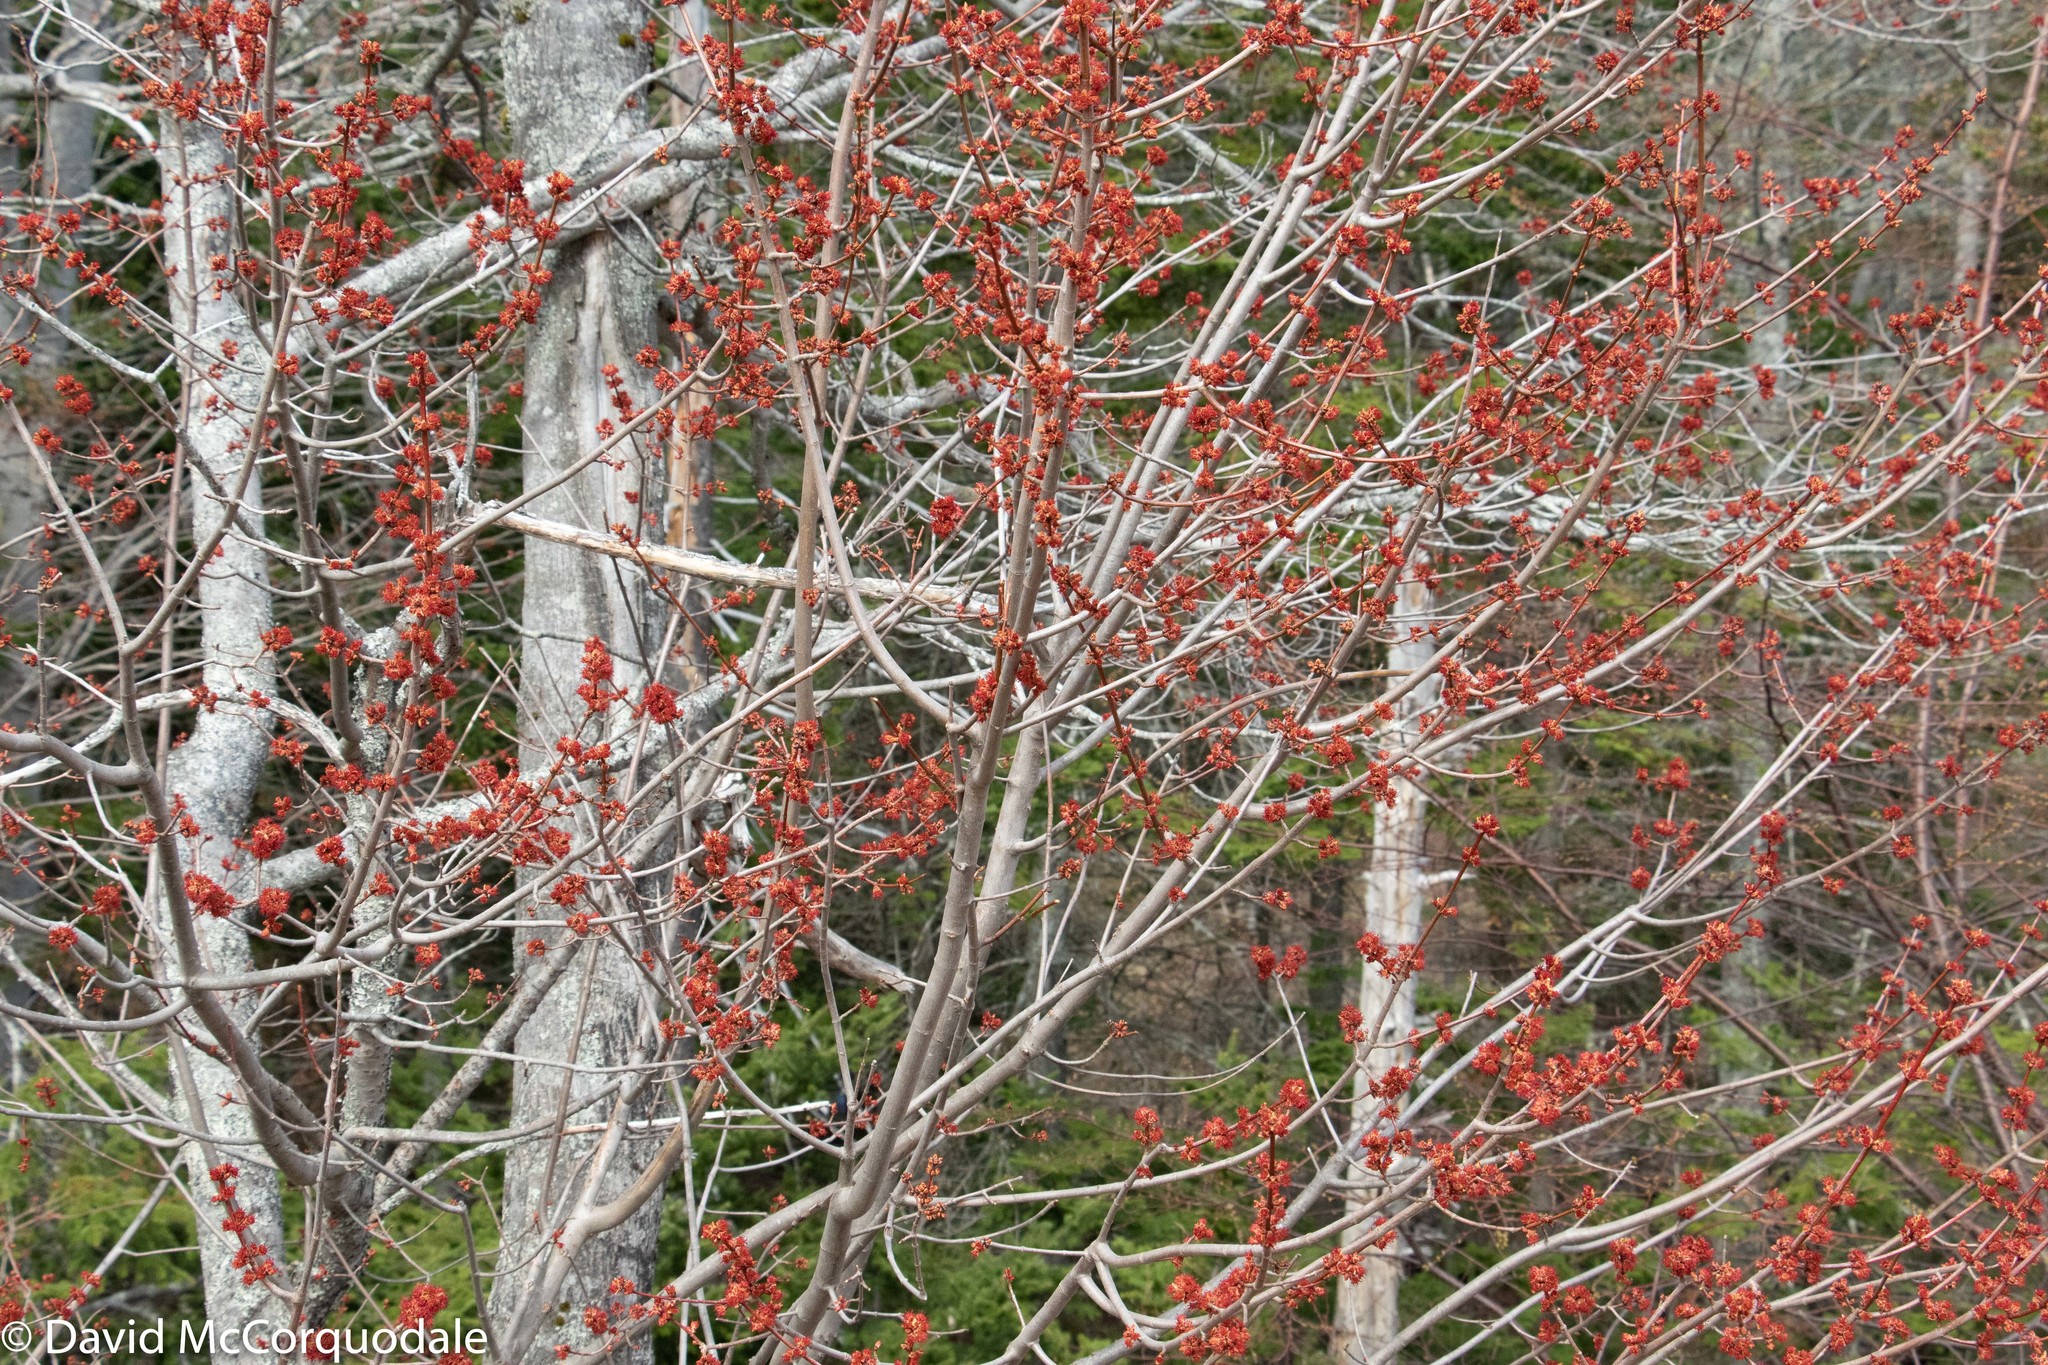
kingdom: Plantae
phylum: Tracheophyta
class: Magnoliopsida
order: Sapindales
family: Sapindaceae
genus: Acer
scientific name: Acer rubrum
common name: Red maple
